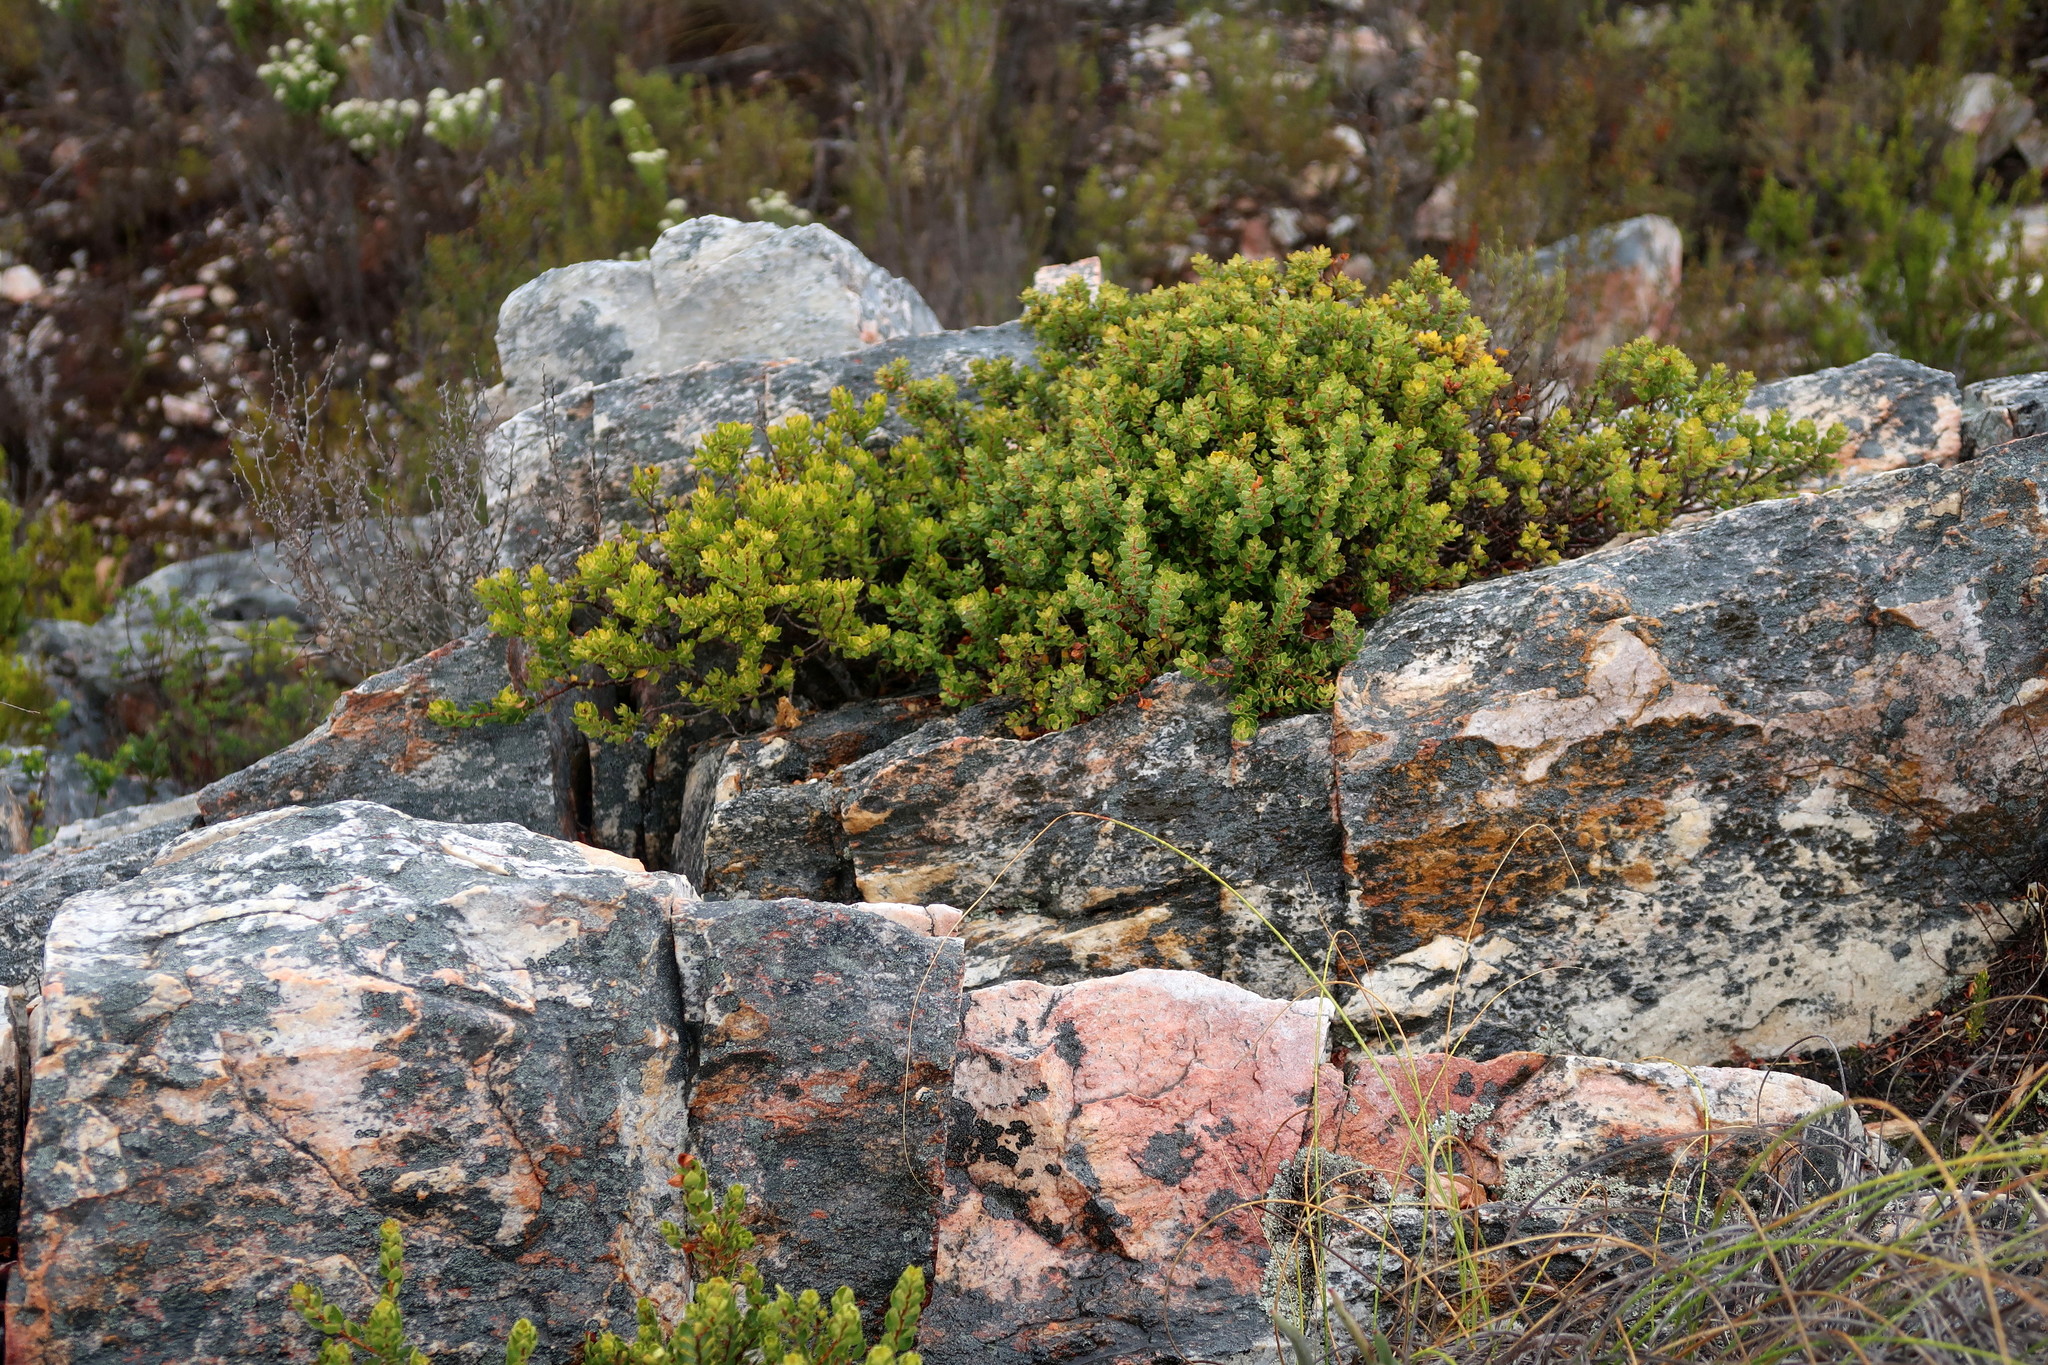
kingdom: Plantae
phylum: Tracheophyta
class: Magnoliopsida
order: Sapindales
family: Rutaceae
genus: Agathosma
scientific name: Agathosma ovata
